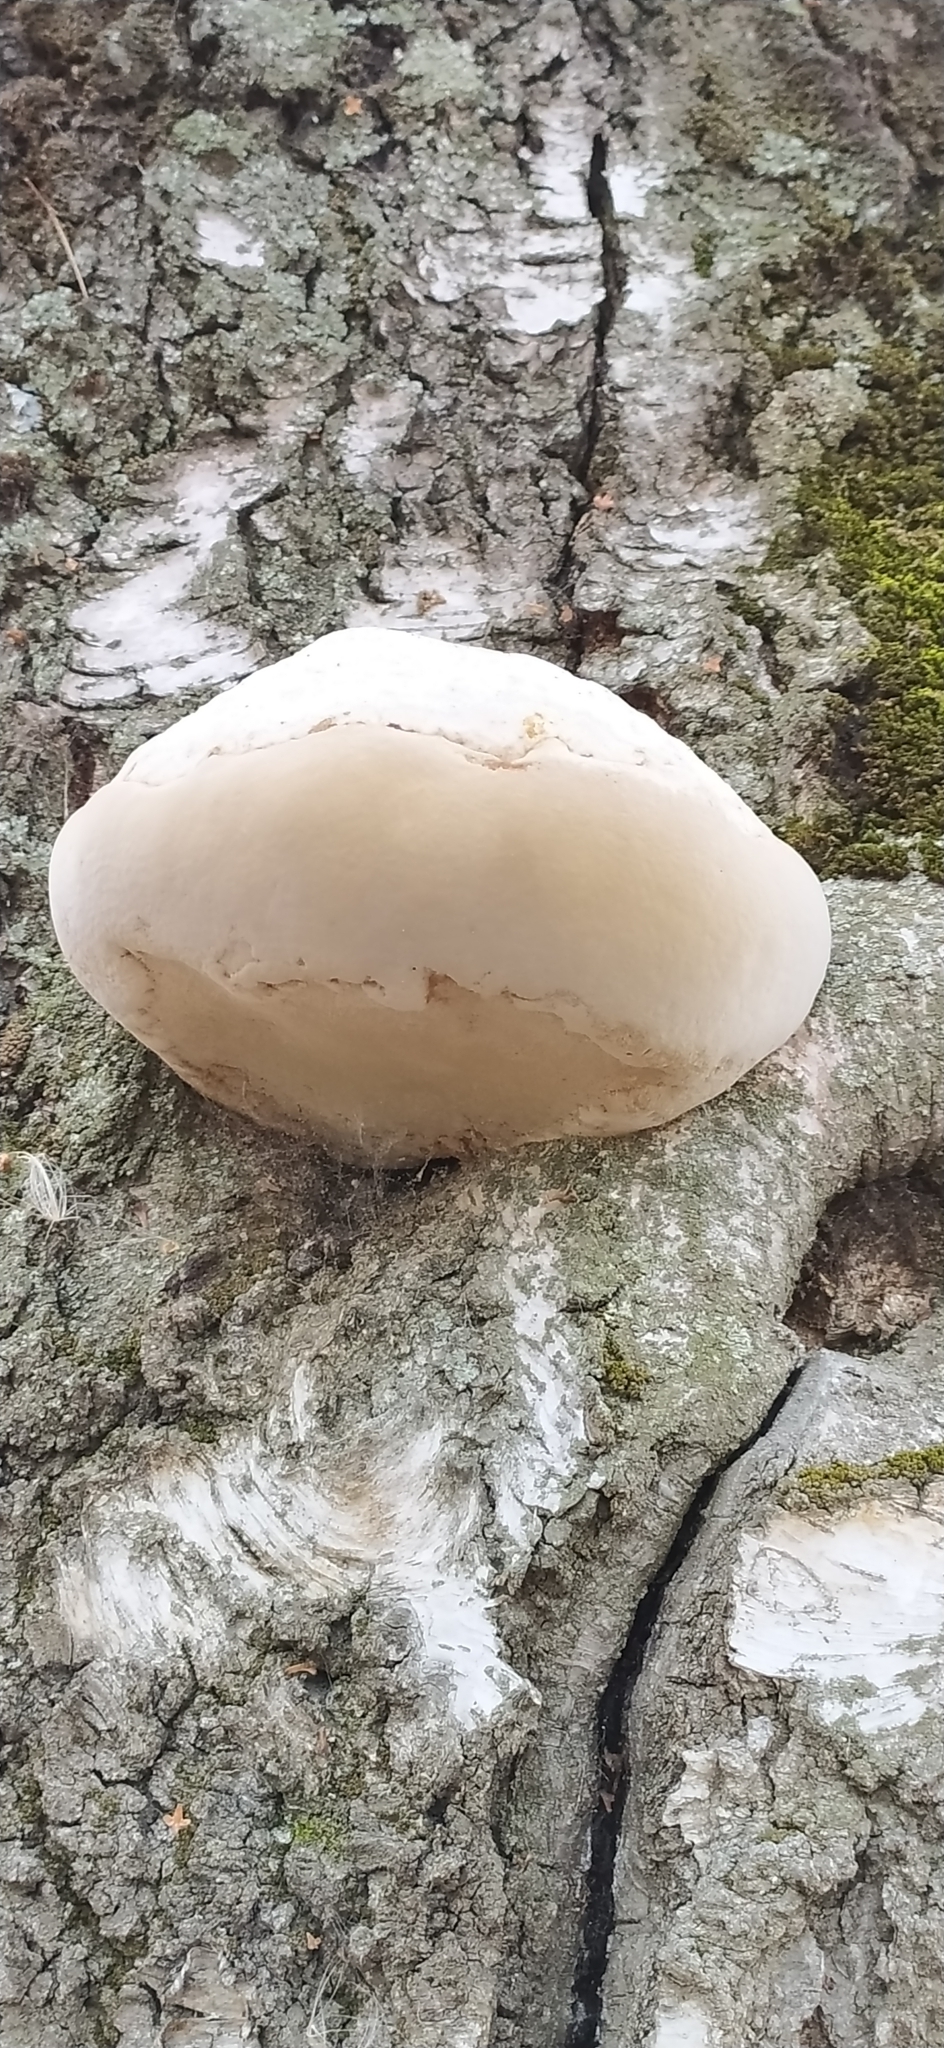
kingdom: Fungi
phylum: Basidiomycota
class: Agaricomycetes
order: Polyporales
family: Fomitopsidaceae
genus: Fomitopsis
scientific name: Fomitopsis betulina
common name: Birch polypore
